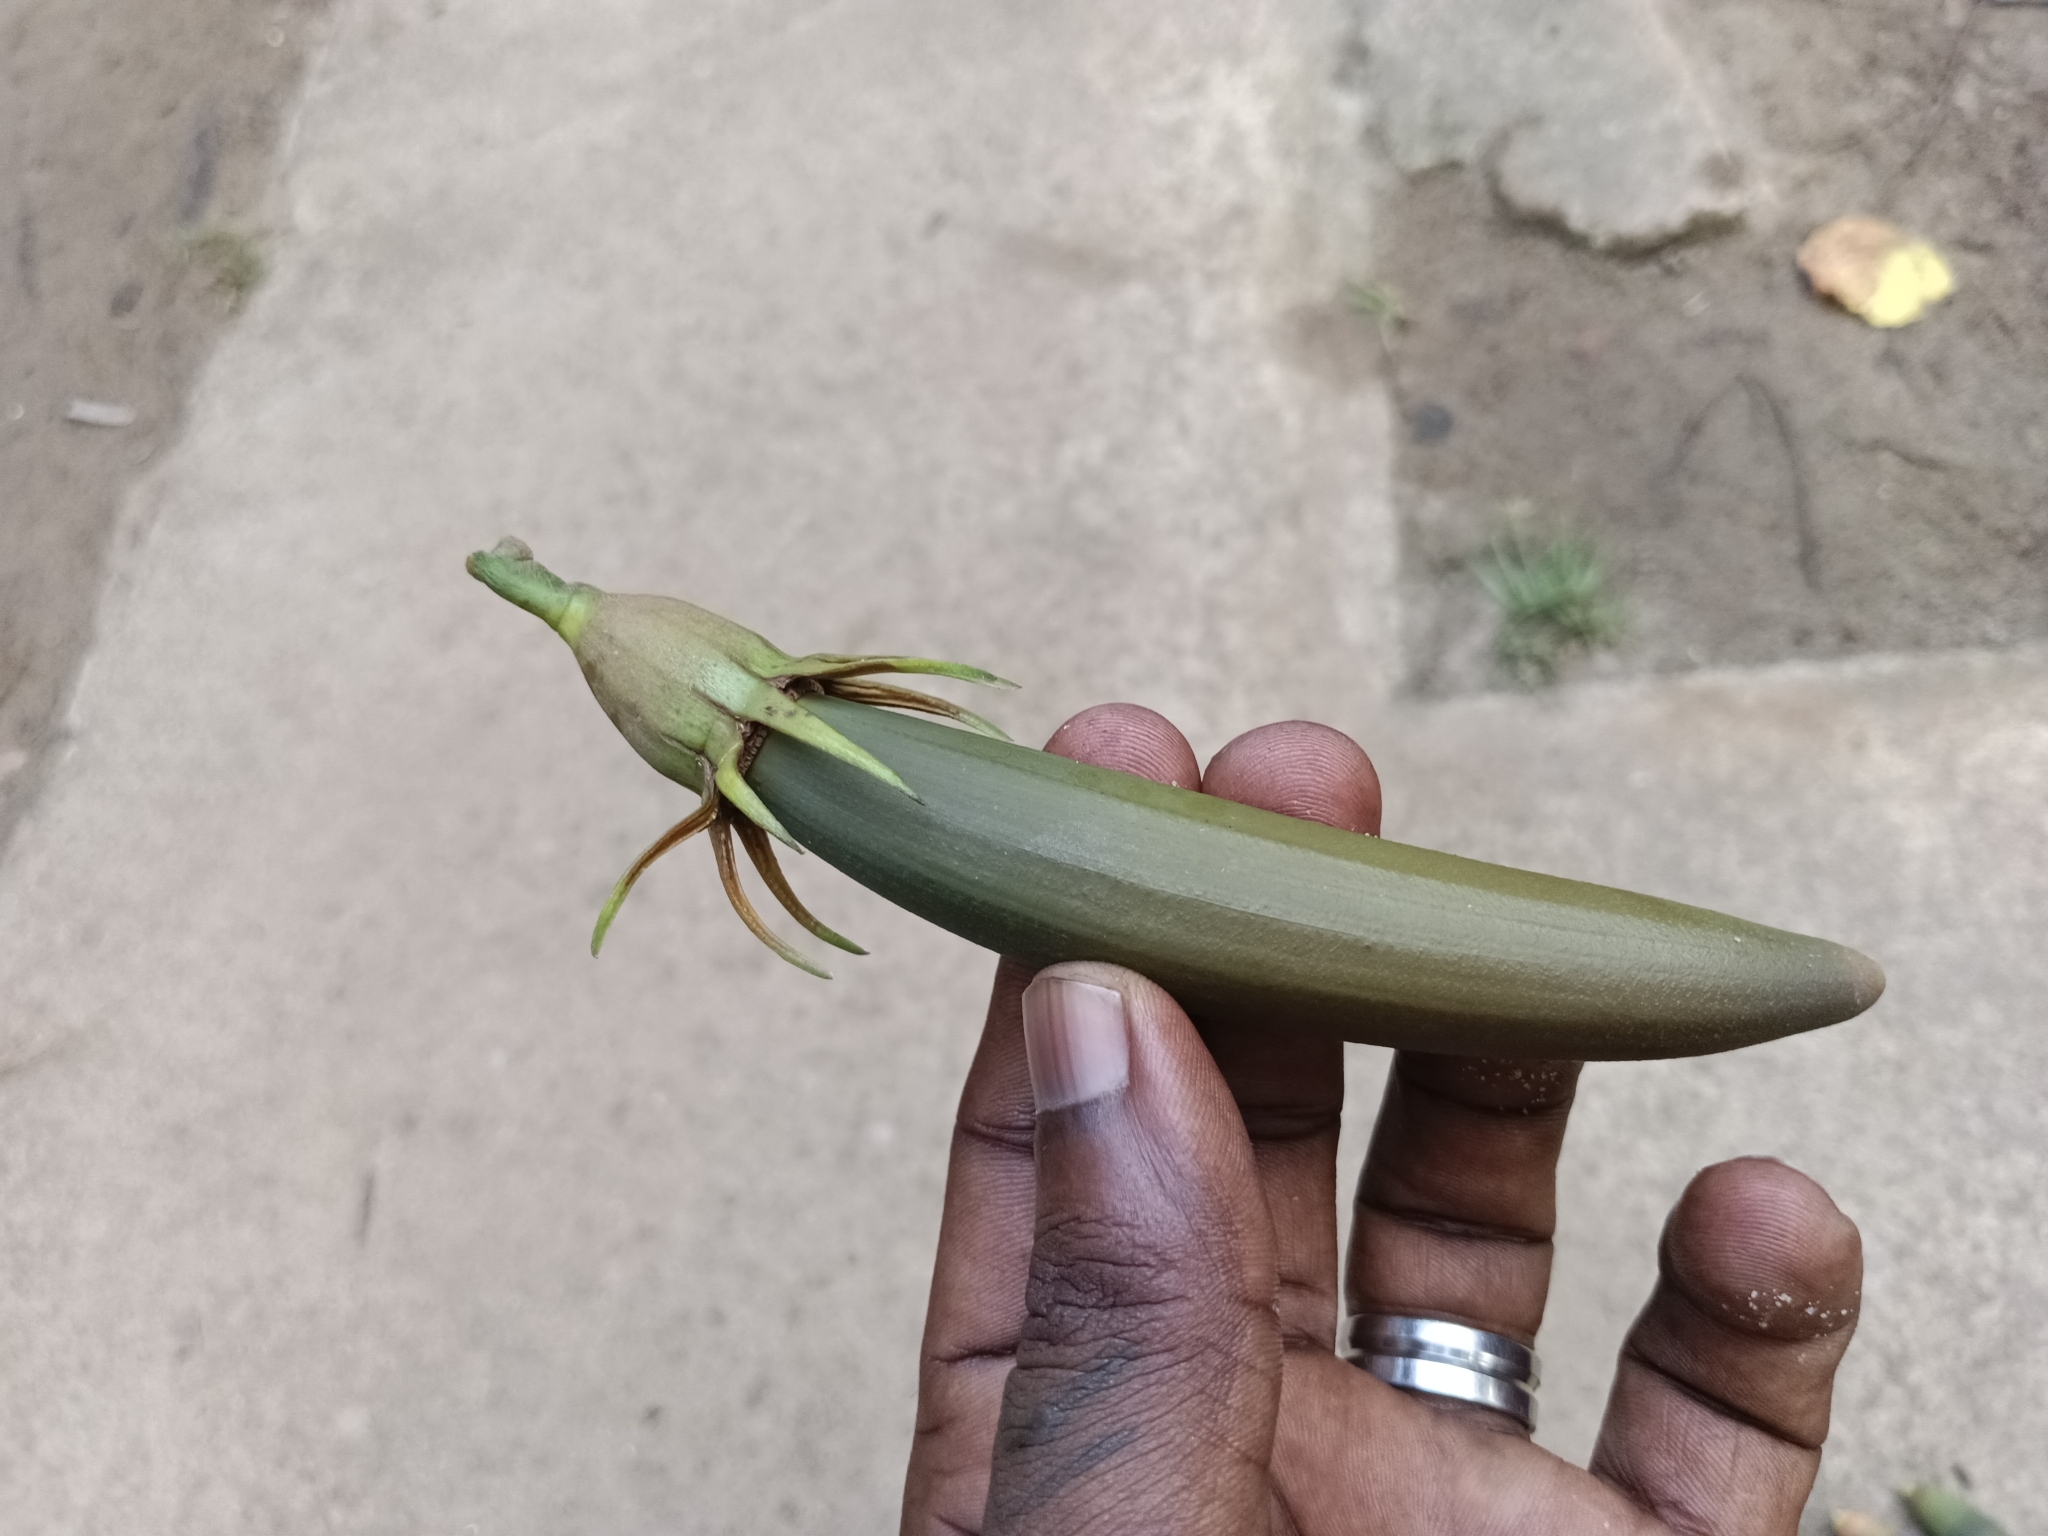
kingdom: Plantae
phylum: Tracheophyta
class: Magnoliopsida
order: Malpighiales
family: Rhizophoraceae
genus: Bruguiera
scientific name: Bruguiera gymnorhiza
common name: Oriental mangrove
